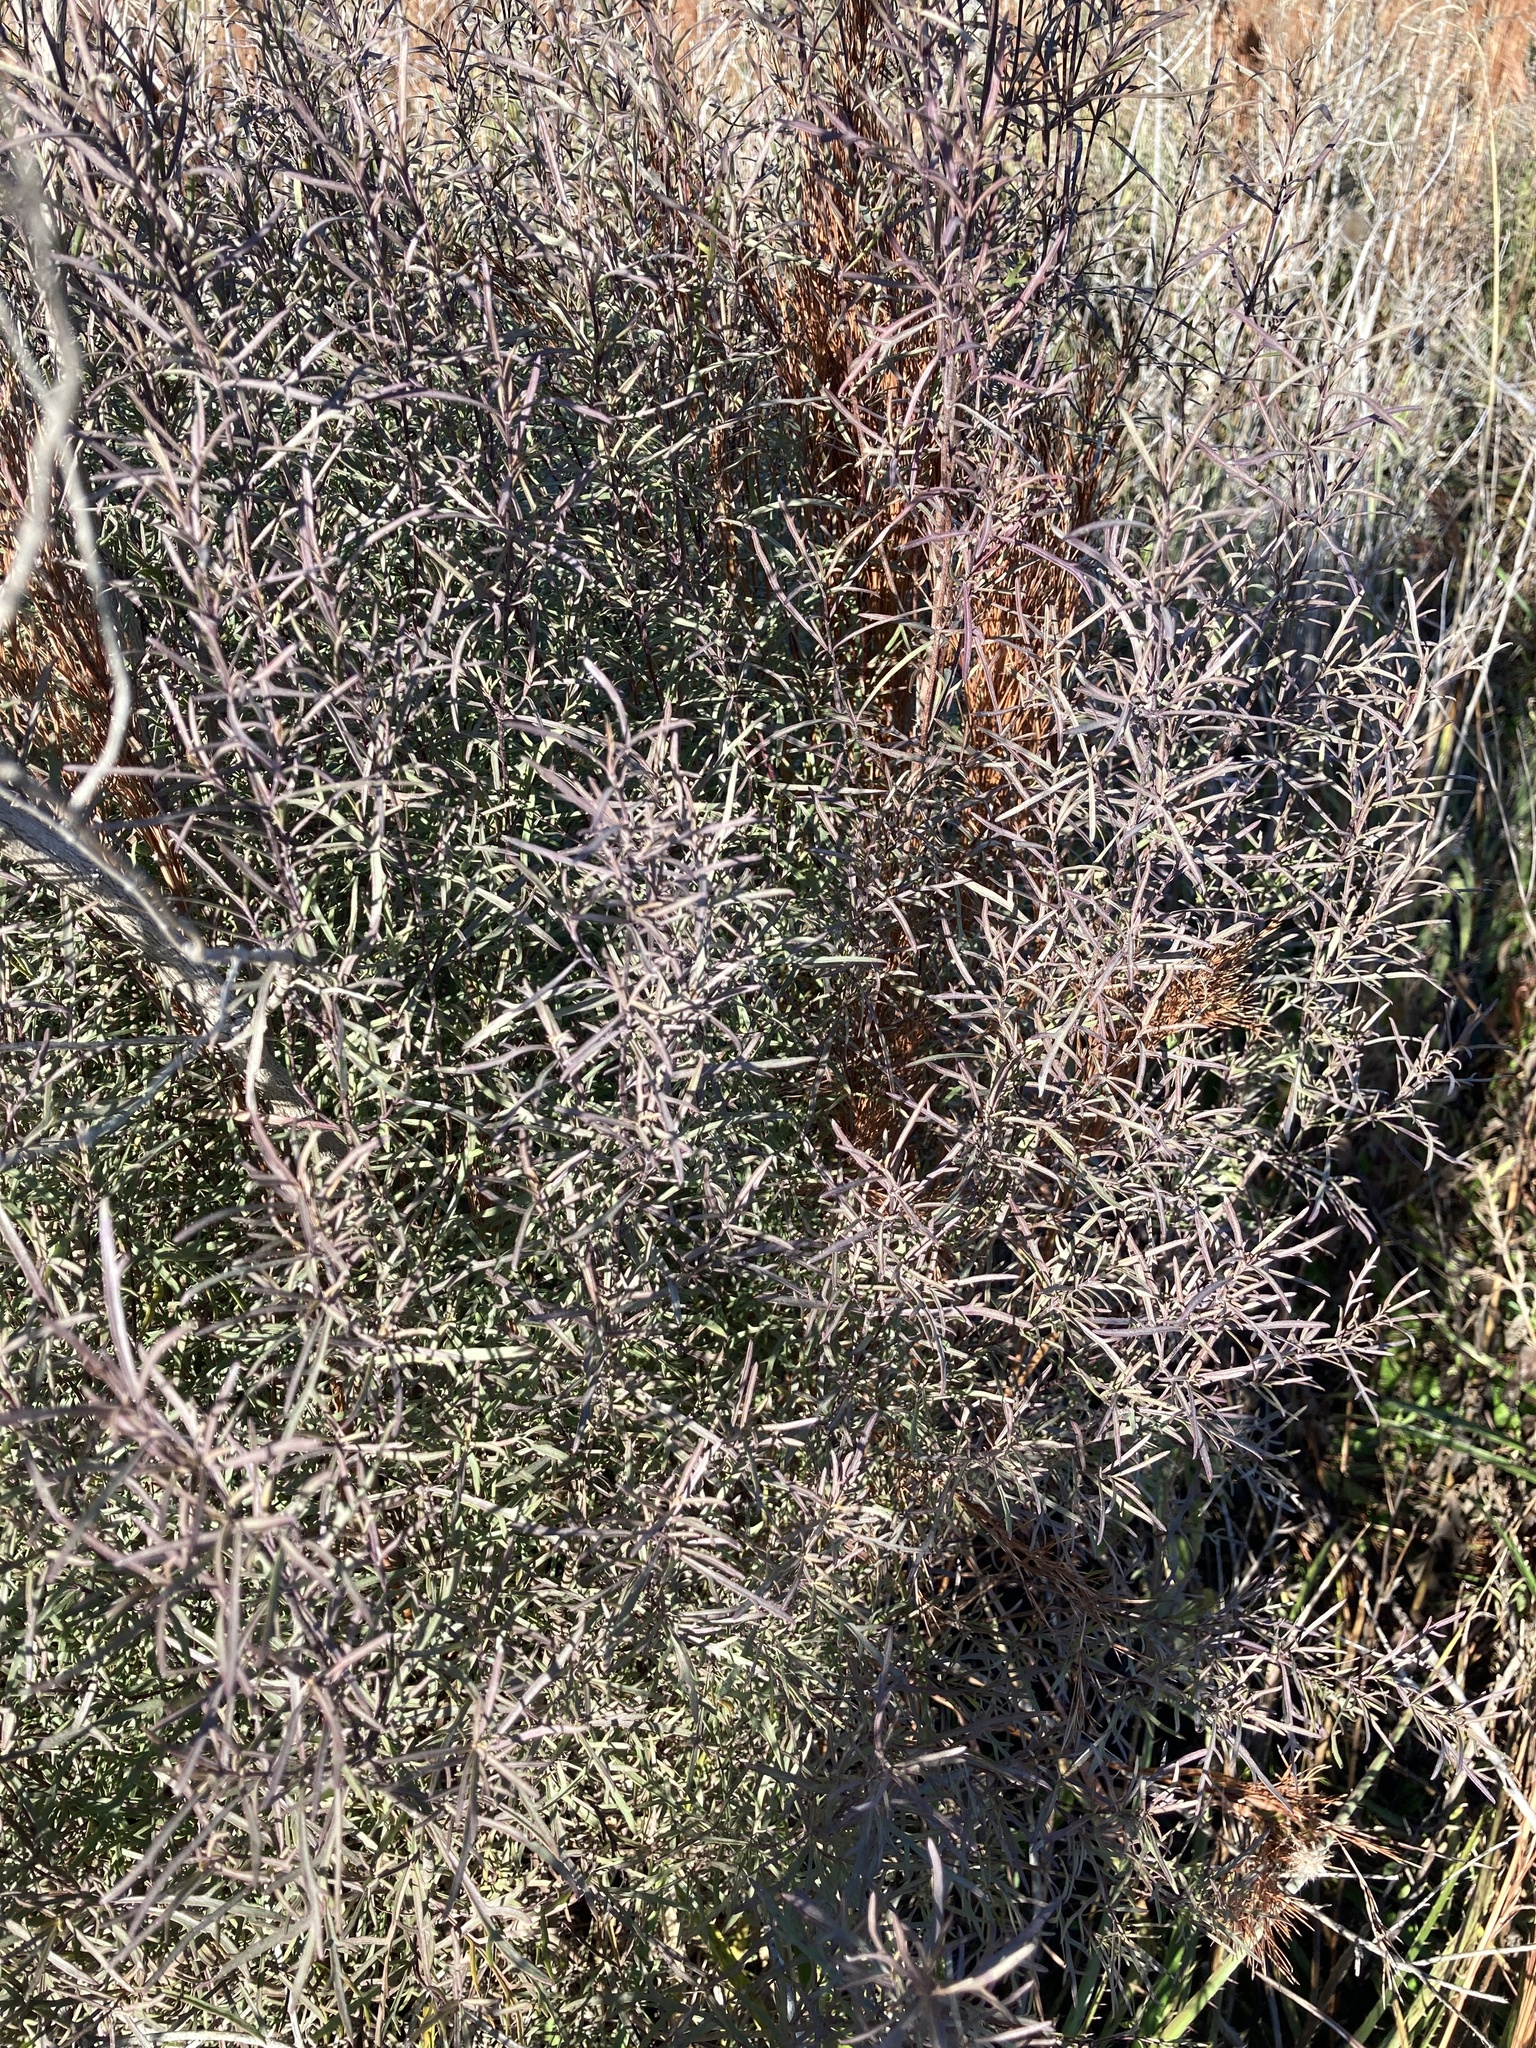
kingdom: Plantae
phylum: Tracheophyta
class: Magnoliopsida
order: Asterales
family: Asteraceae
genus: Acanthostyles
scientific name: Acanthostyles buniifolius
